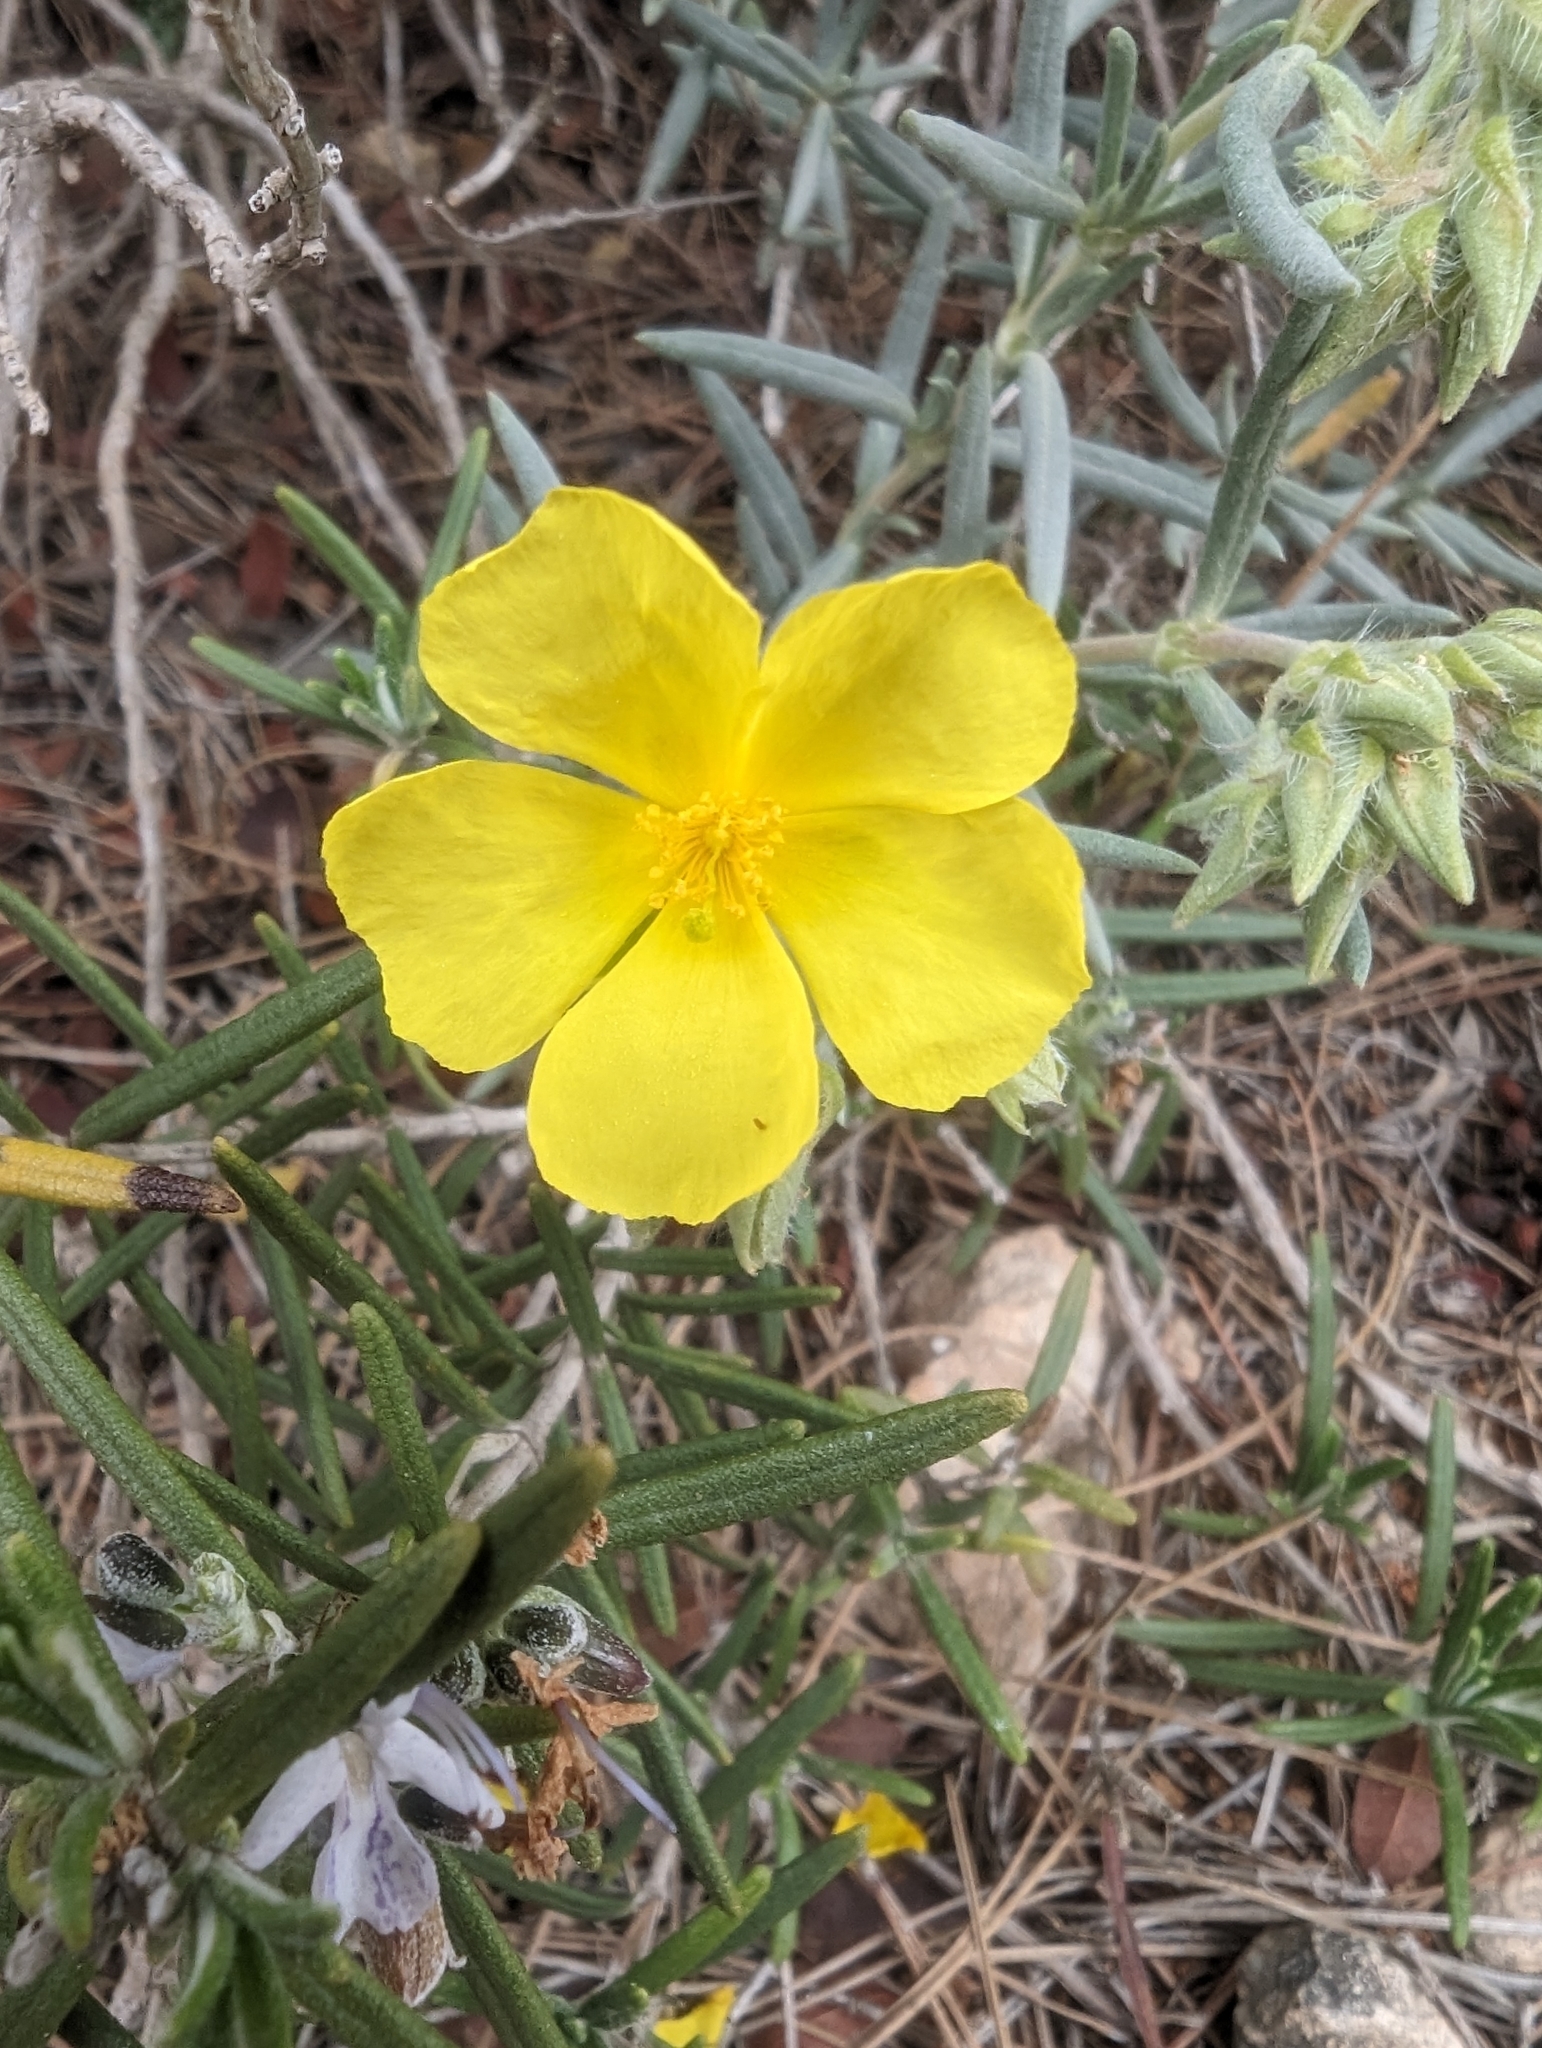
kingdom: Plantae
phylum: Tracheophyta
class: Magnoliopsida
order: Malvales
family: Cistaceae
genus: Helianthemum
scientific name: Helianthemum syriacum
